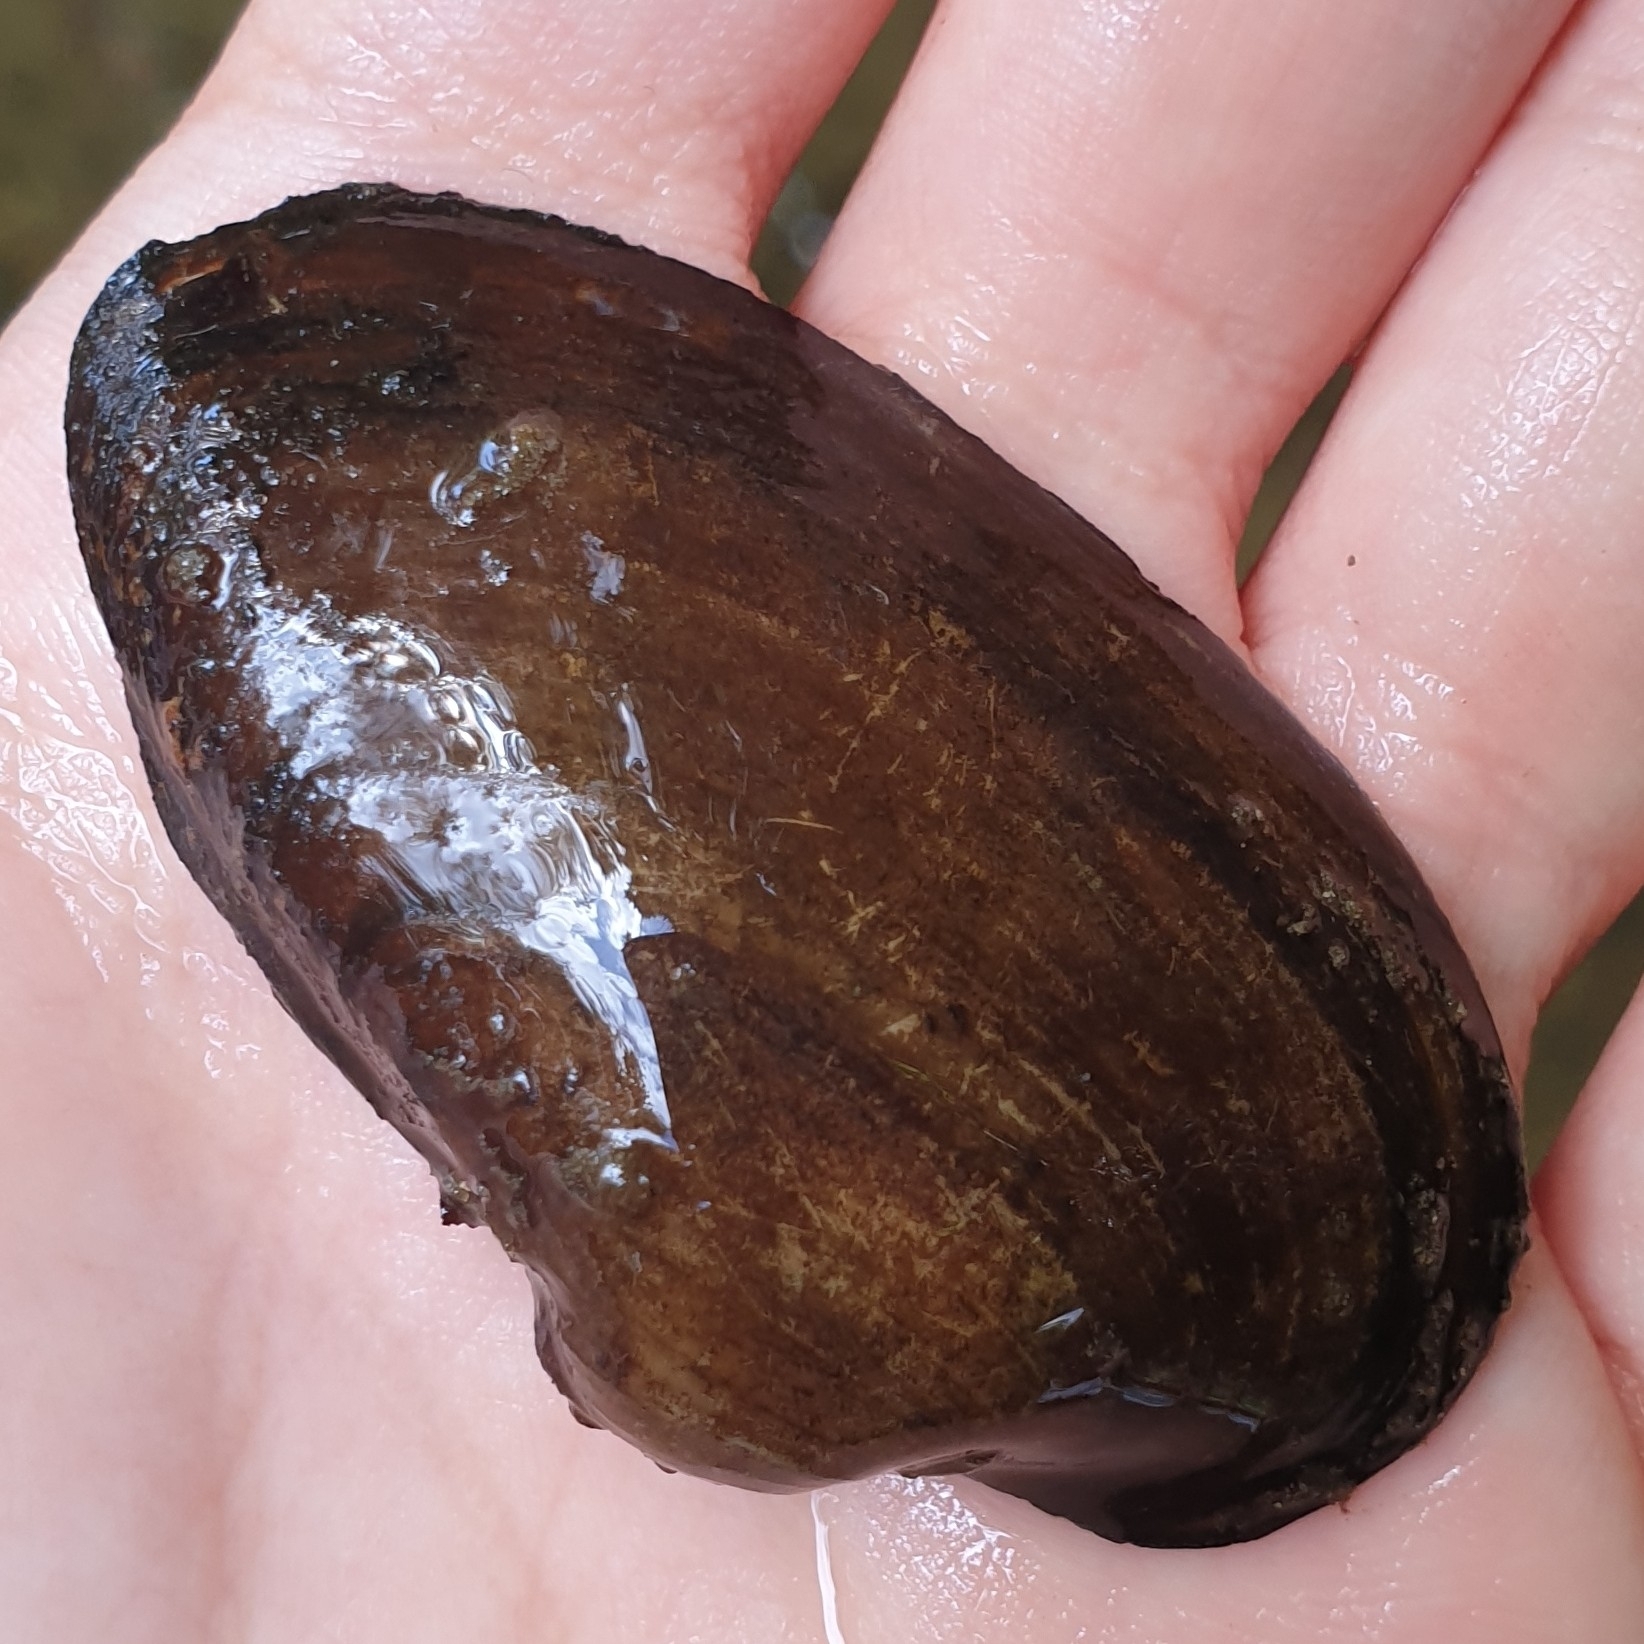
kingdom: Animalia
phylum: Mollusca
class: Bivalvia
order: Unionida
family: Unionidae
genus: Unio
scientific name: Unio tumidus
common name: Swollen river mussel
